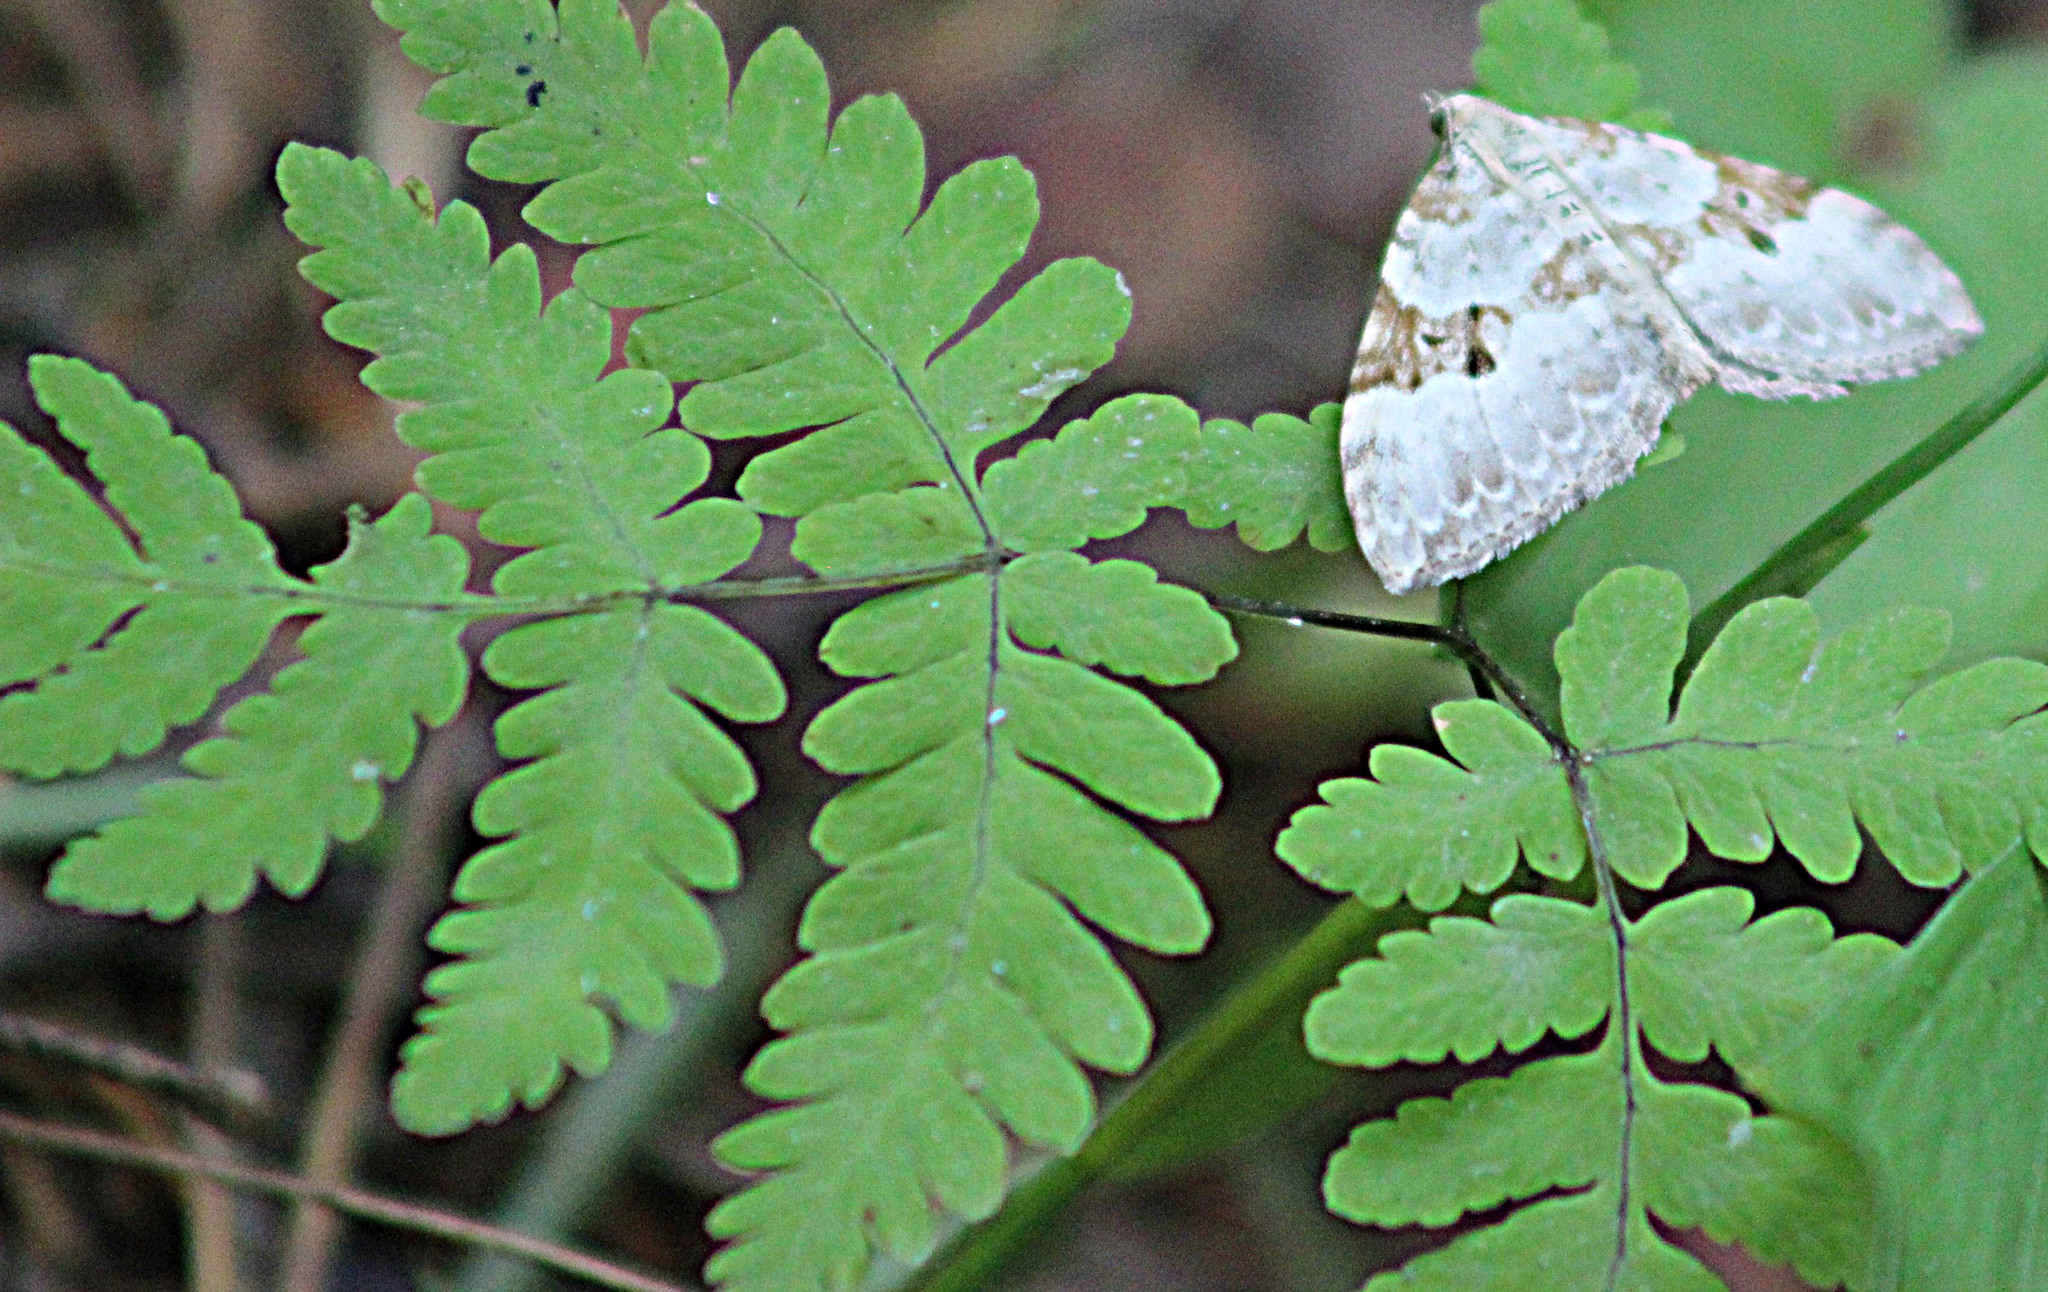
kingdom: Animalia
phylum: Arthropoda
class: Insecta
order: Lepidoptera
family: Geometridae
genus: Xanthorhoe
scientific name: Xanthorhoe montanata
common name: Silver-ground carpet
